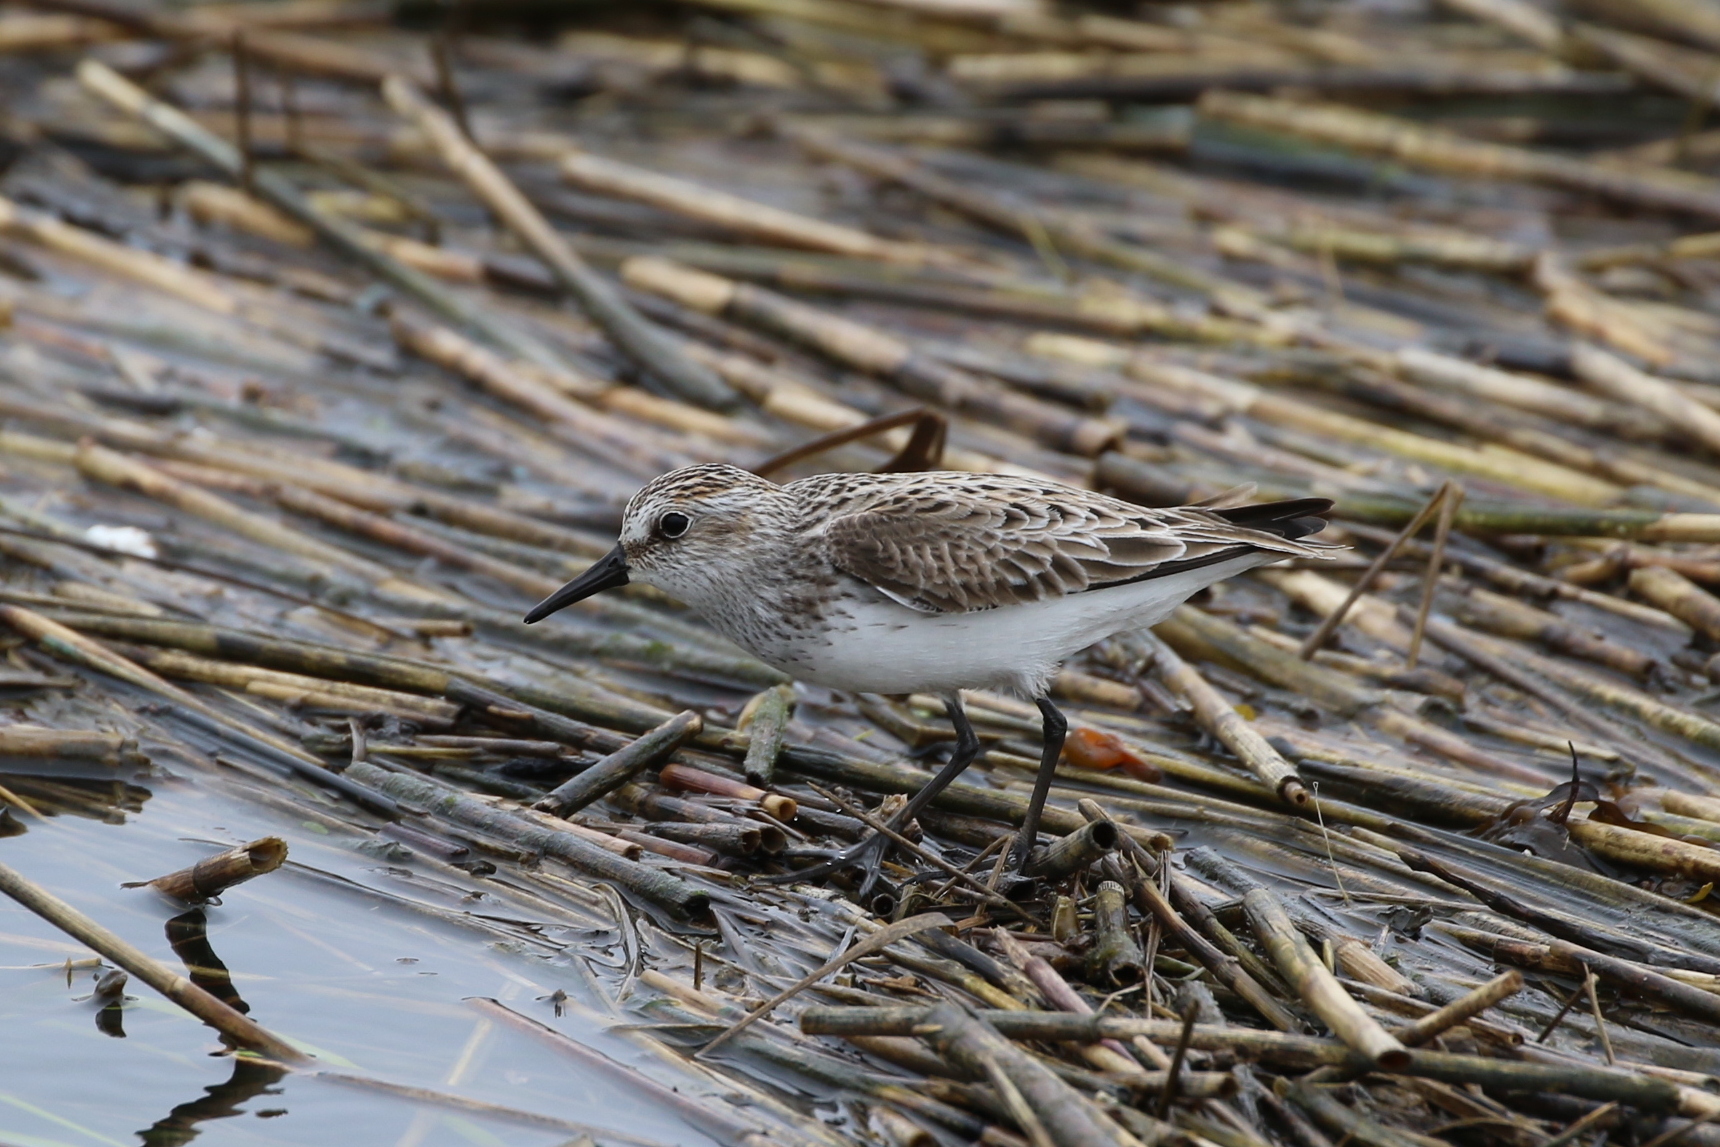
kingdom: Animalia
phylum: Chordata
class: Aves
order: Charadriiformes
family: Scolopacidae
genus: Calidris
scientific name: Calidris pusilla
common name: Semipalmated sandpiper
